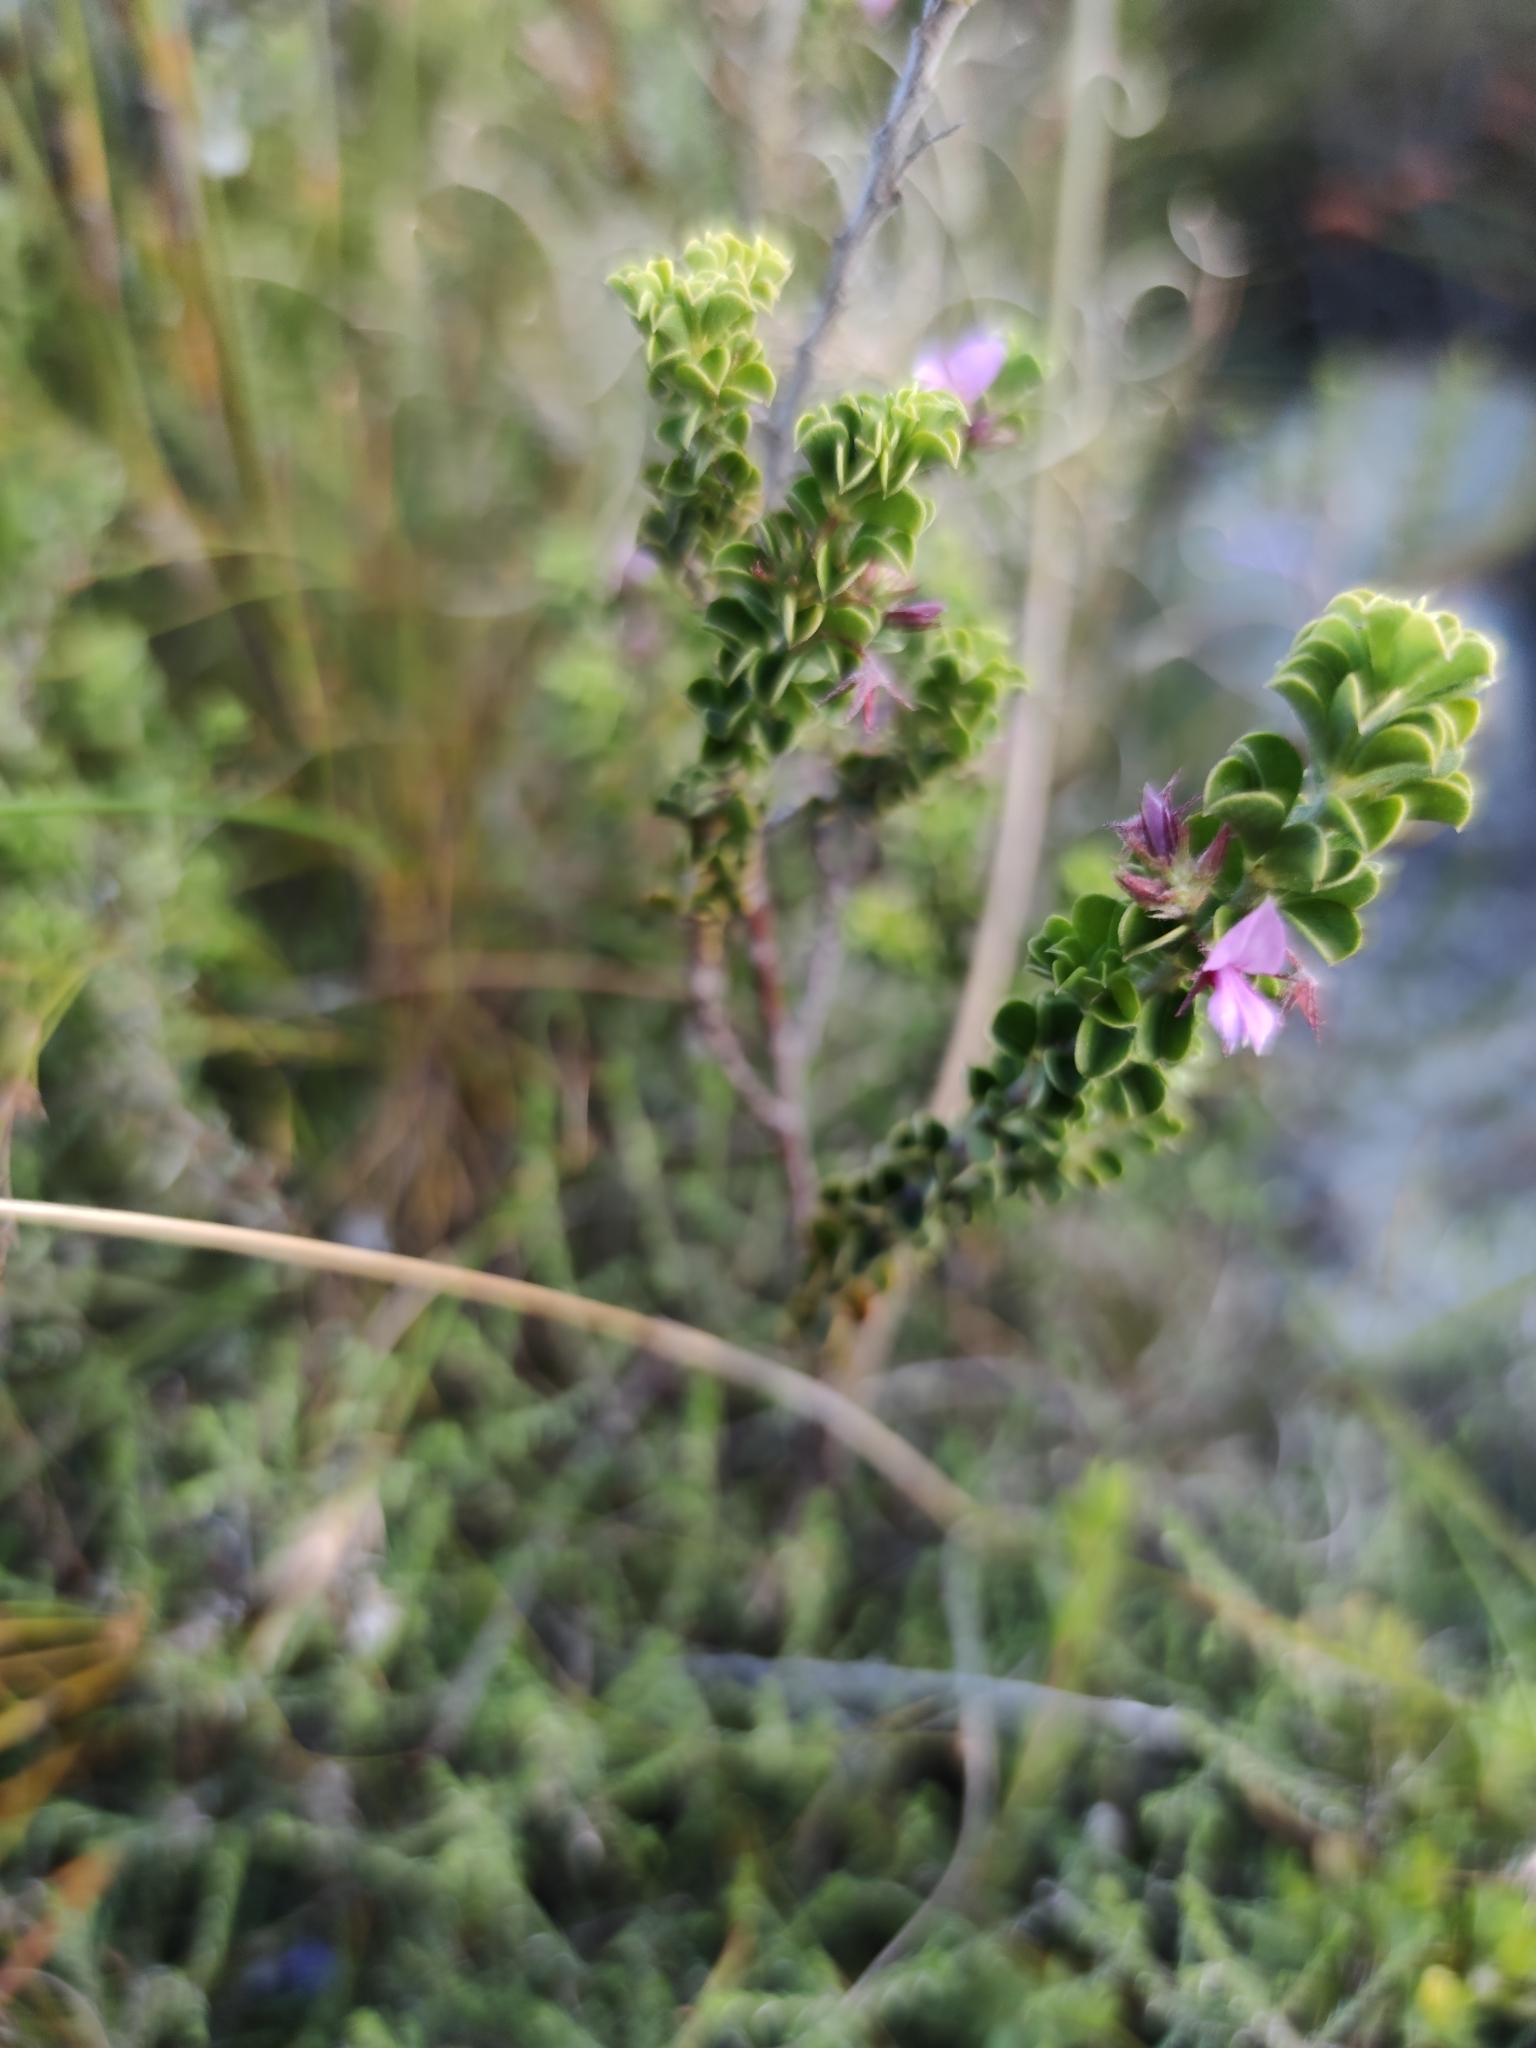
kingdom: Plantae
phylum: Tracheophyta
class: Magnoliopsida
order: Fabales
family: Fabaceae
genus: Indigofera
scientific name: Indigofera candolleana
